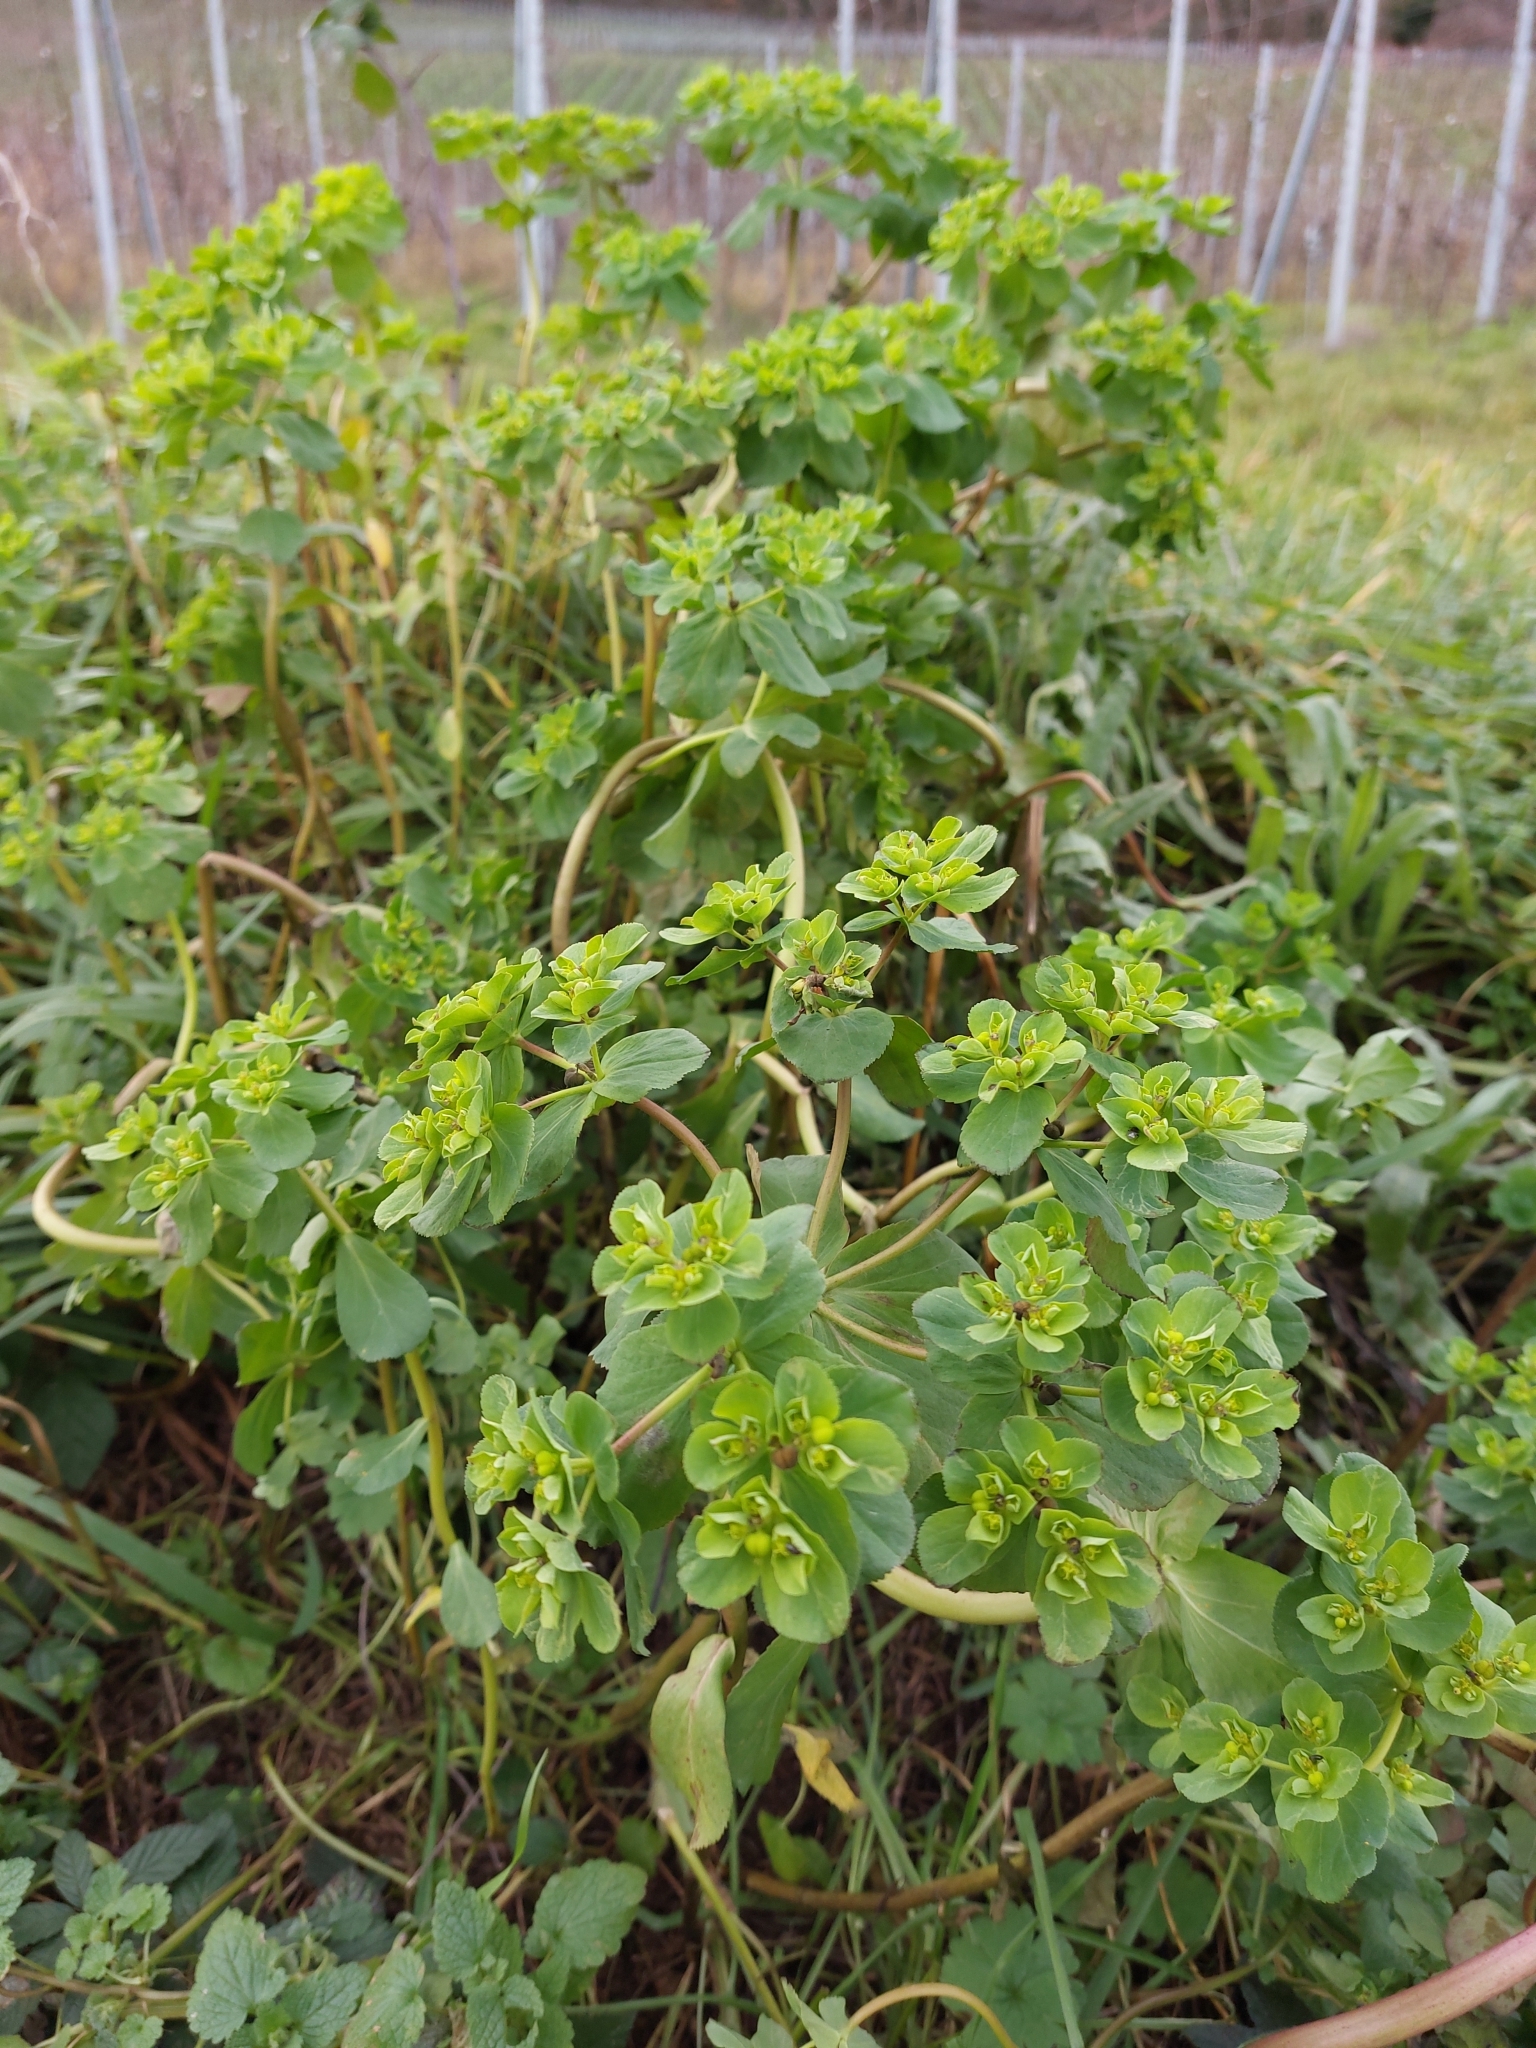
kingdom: Plantae
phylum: Tracheophyta
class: Magnoliopsida
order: Malpighiales
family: Euphorbiaceae
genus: Euphorbia
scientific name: Euphorbia helioscopia
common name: Sun spurge
